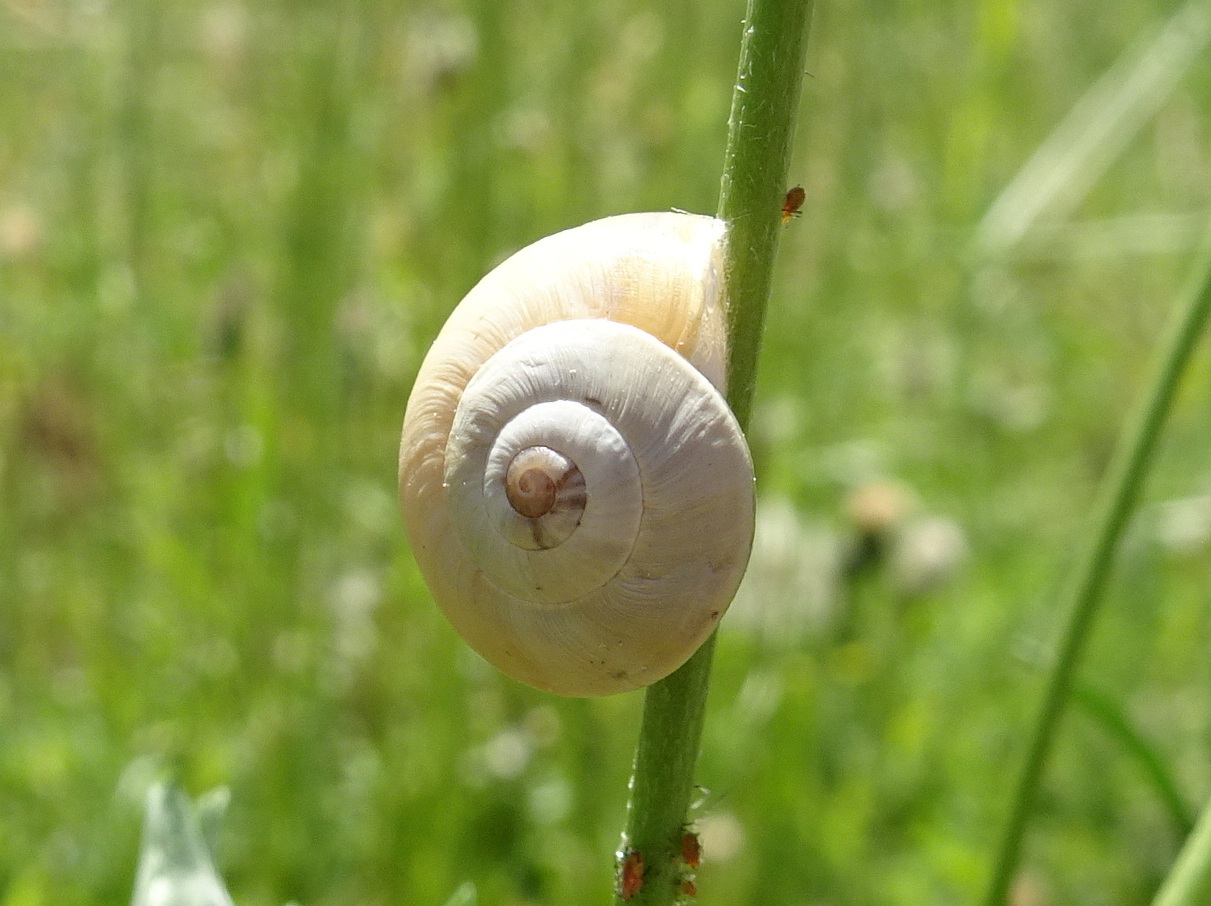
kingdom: Animalia
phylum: Mollusca
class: Gastropoda
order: Stylommatophora
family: Helicidae
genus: Theba
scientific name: Theba pisana
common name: White snail
